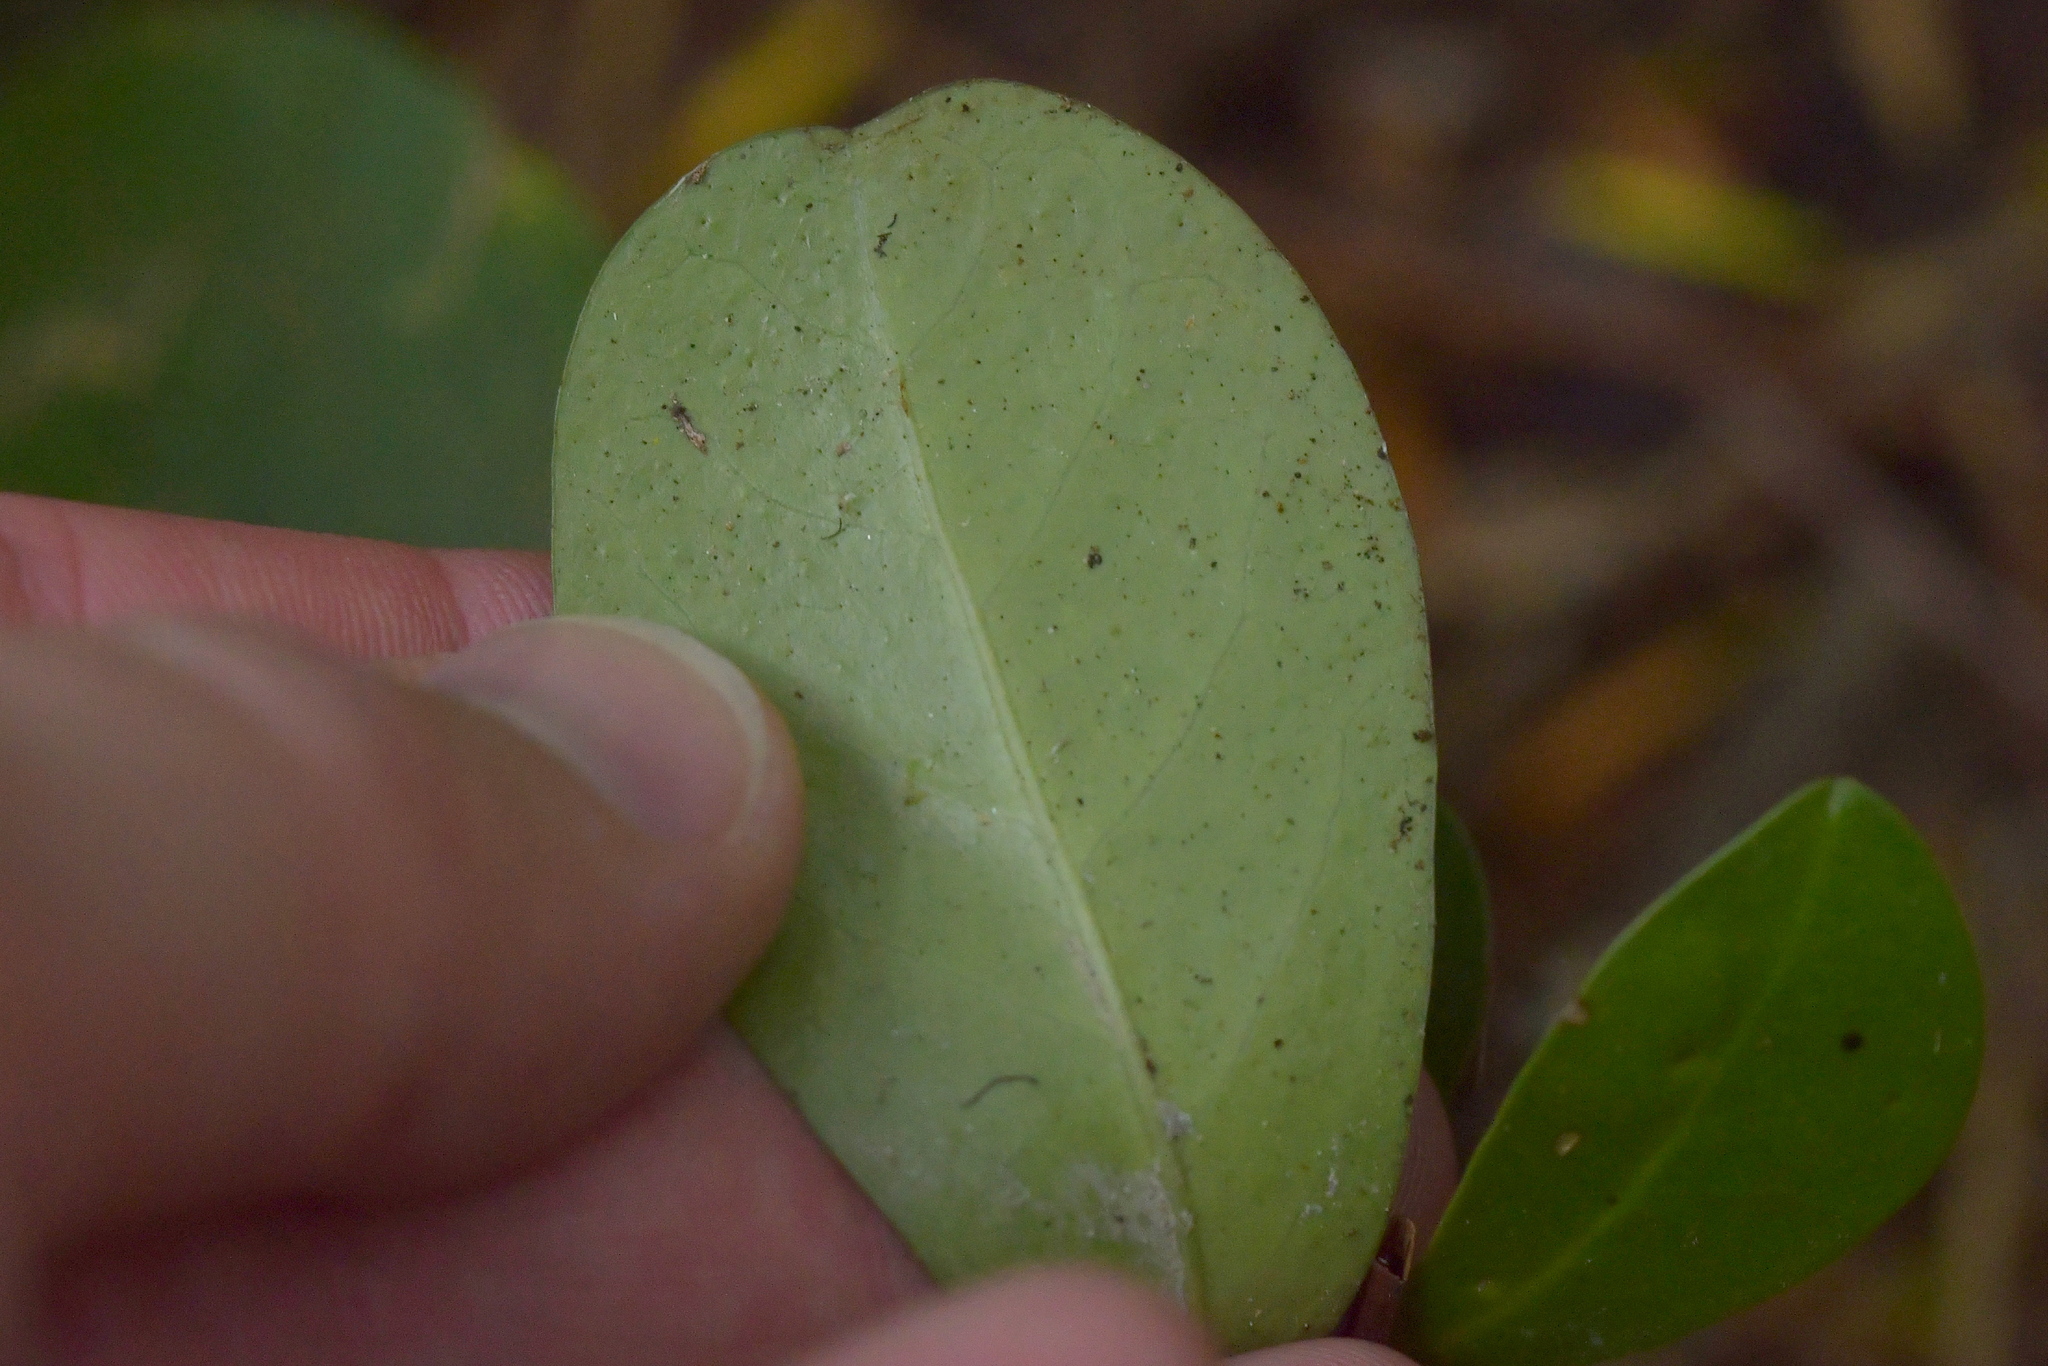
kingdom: Plantae
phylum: Tracheophyta
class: Magnoliopsida
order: Cucurbitales
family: Corynocarpaceae
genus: Corynocarpus
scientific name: Corynocarpus laevigatus
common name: New zealand laurel
